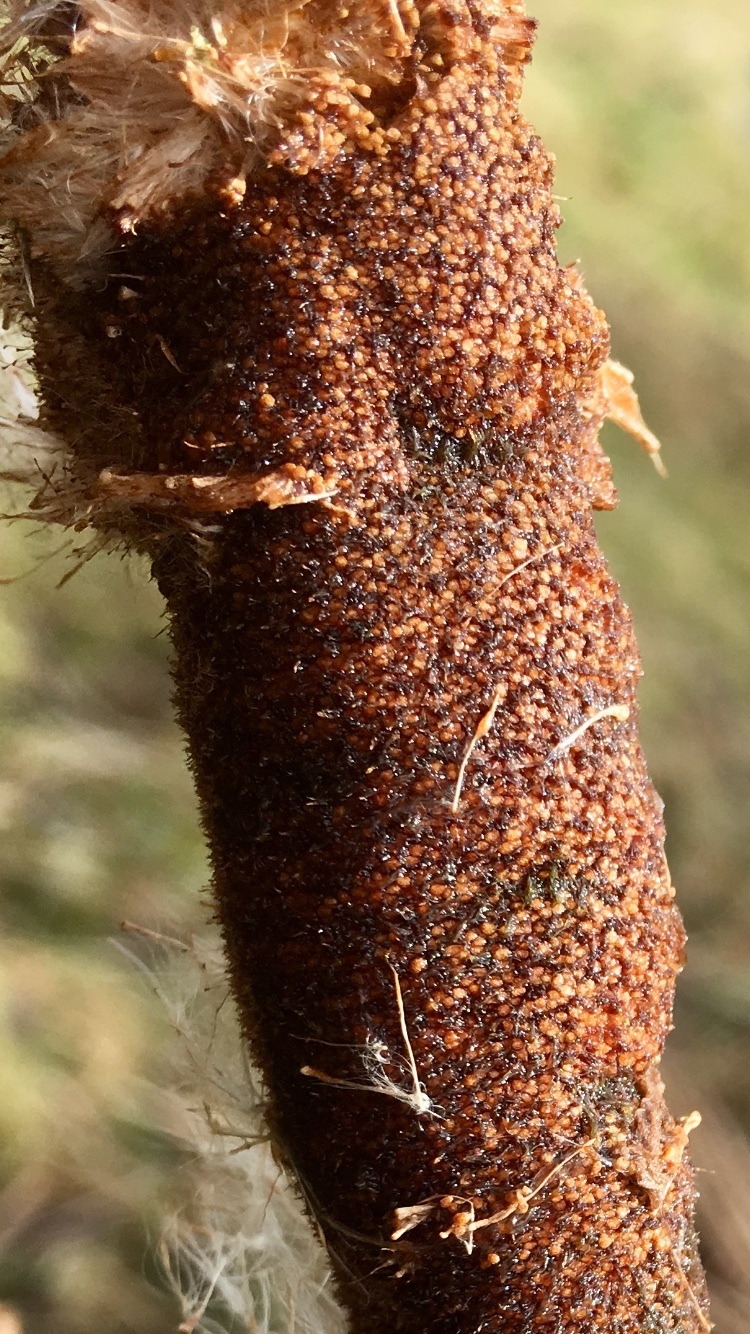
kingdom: Plantae
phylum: Tracheophyta
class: Liliopsida
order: Poales
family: Typhaceae
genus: Typha
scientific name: Typha latifolia
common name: Broadleaf cattail
